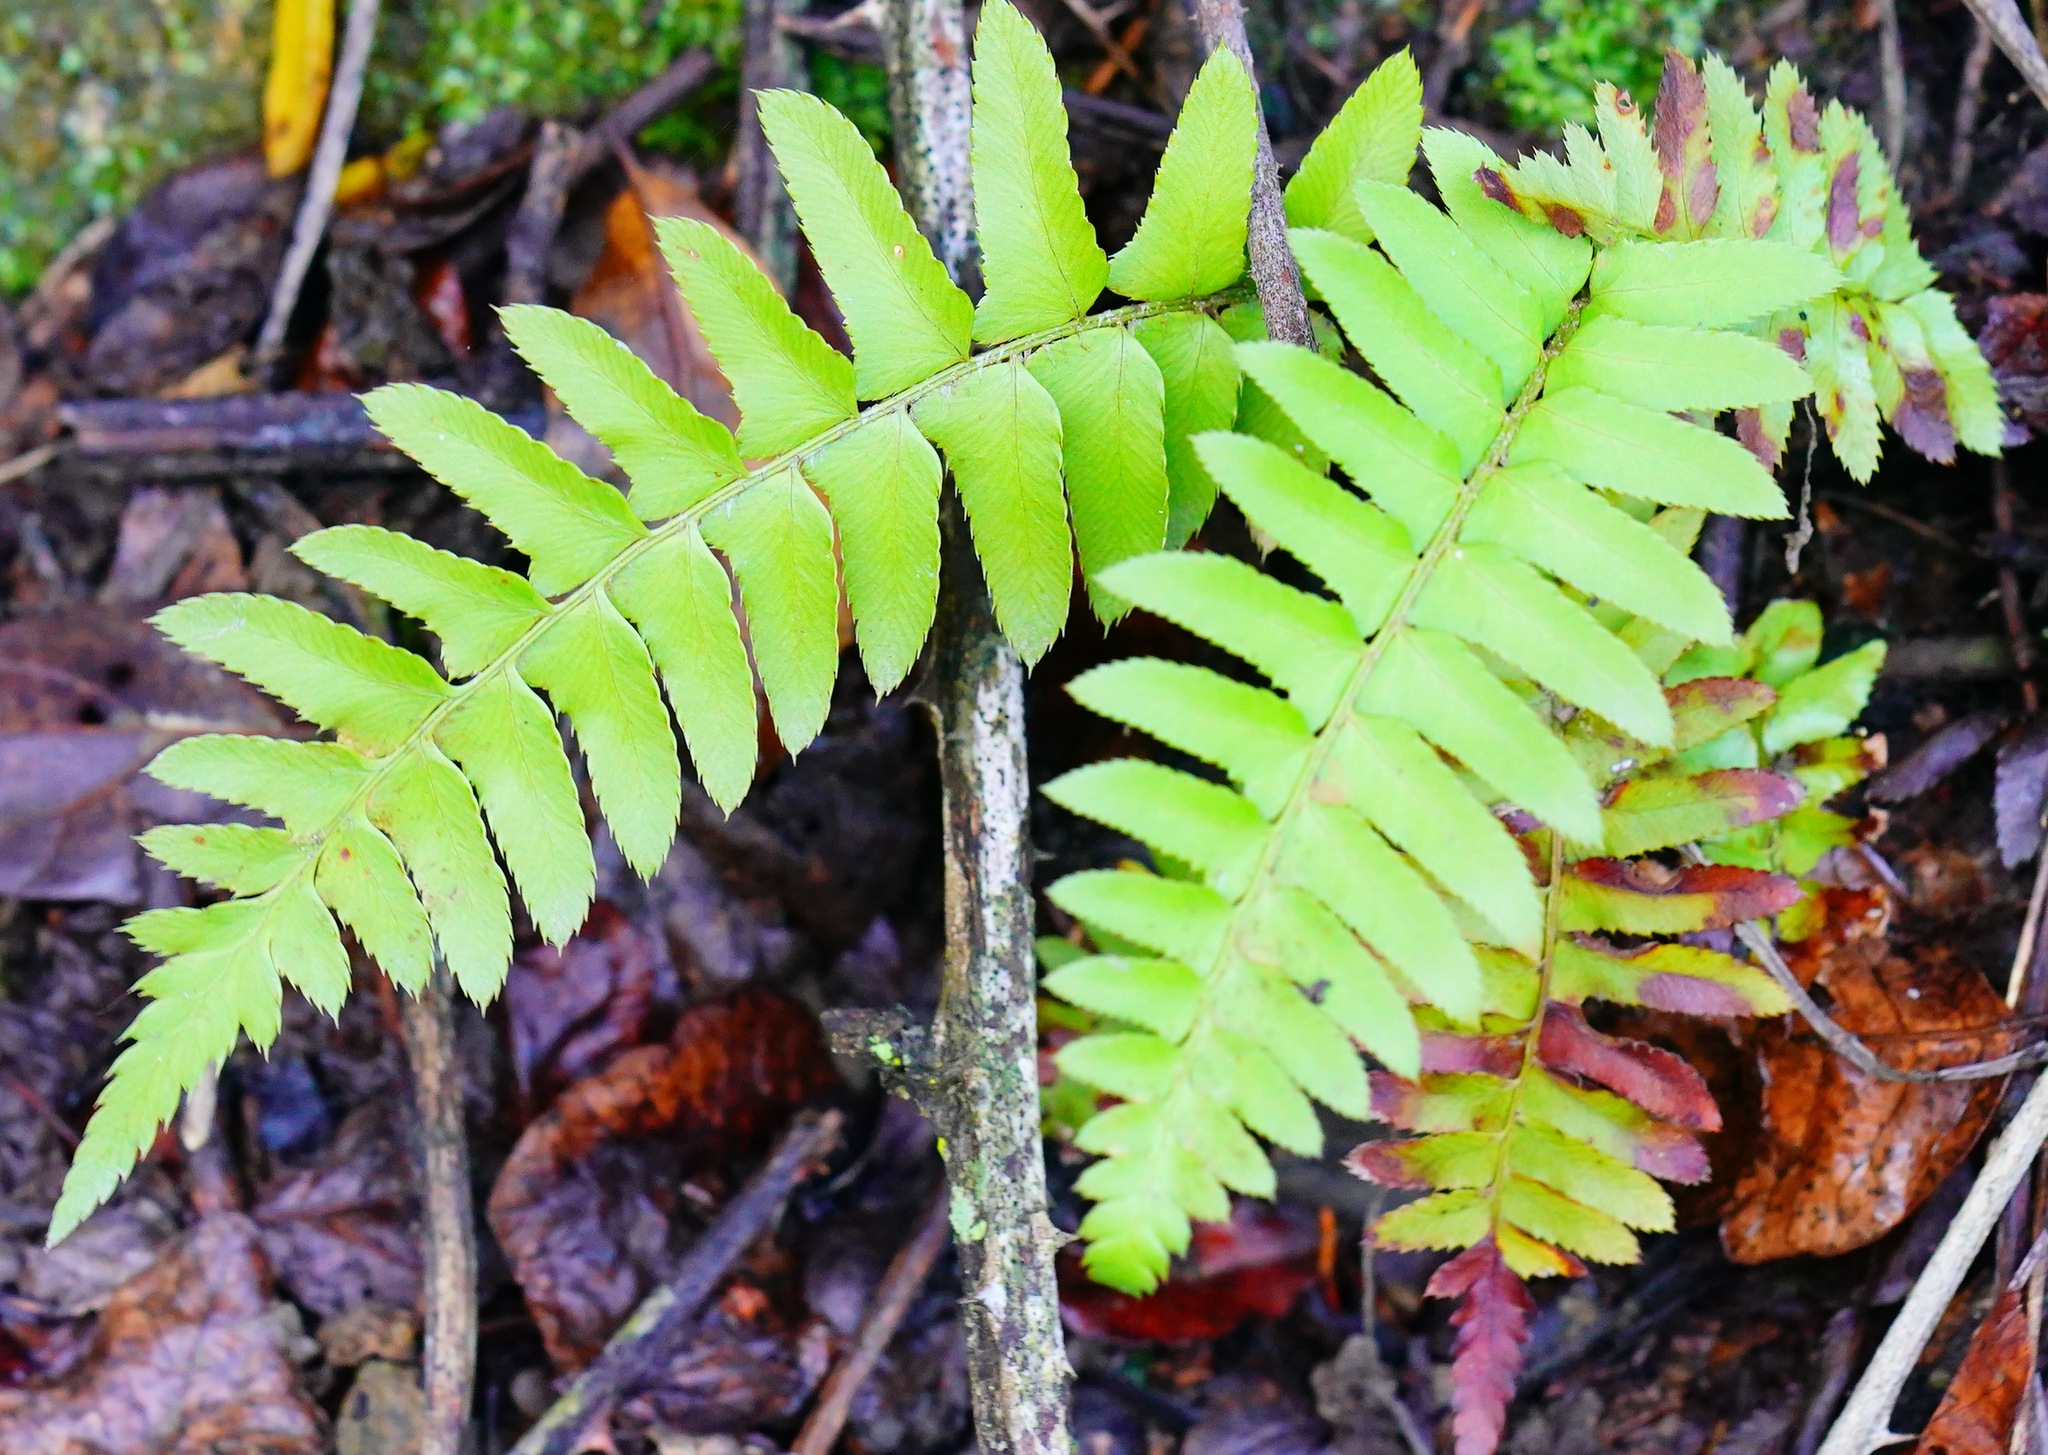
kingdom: Plantae
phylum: Tracheophyta
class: Polypodiopsida
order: Polypodiales
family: Dryopteridaceae
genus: Polystichum
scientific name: Polystichum munitum
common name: Western sword-fern
